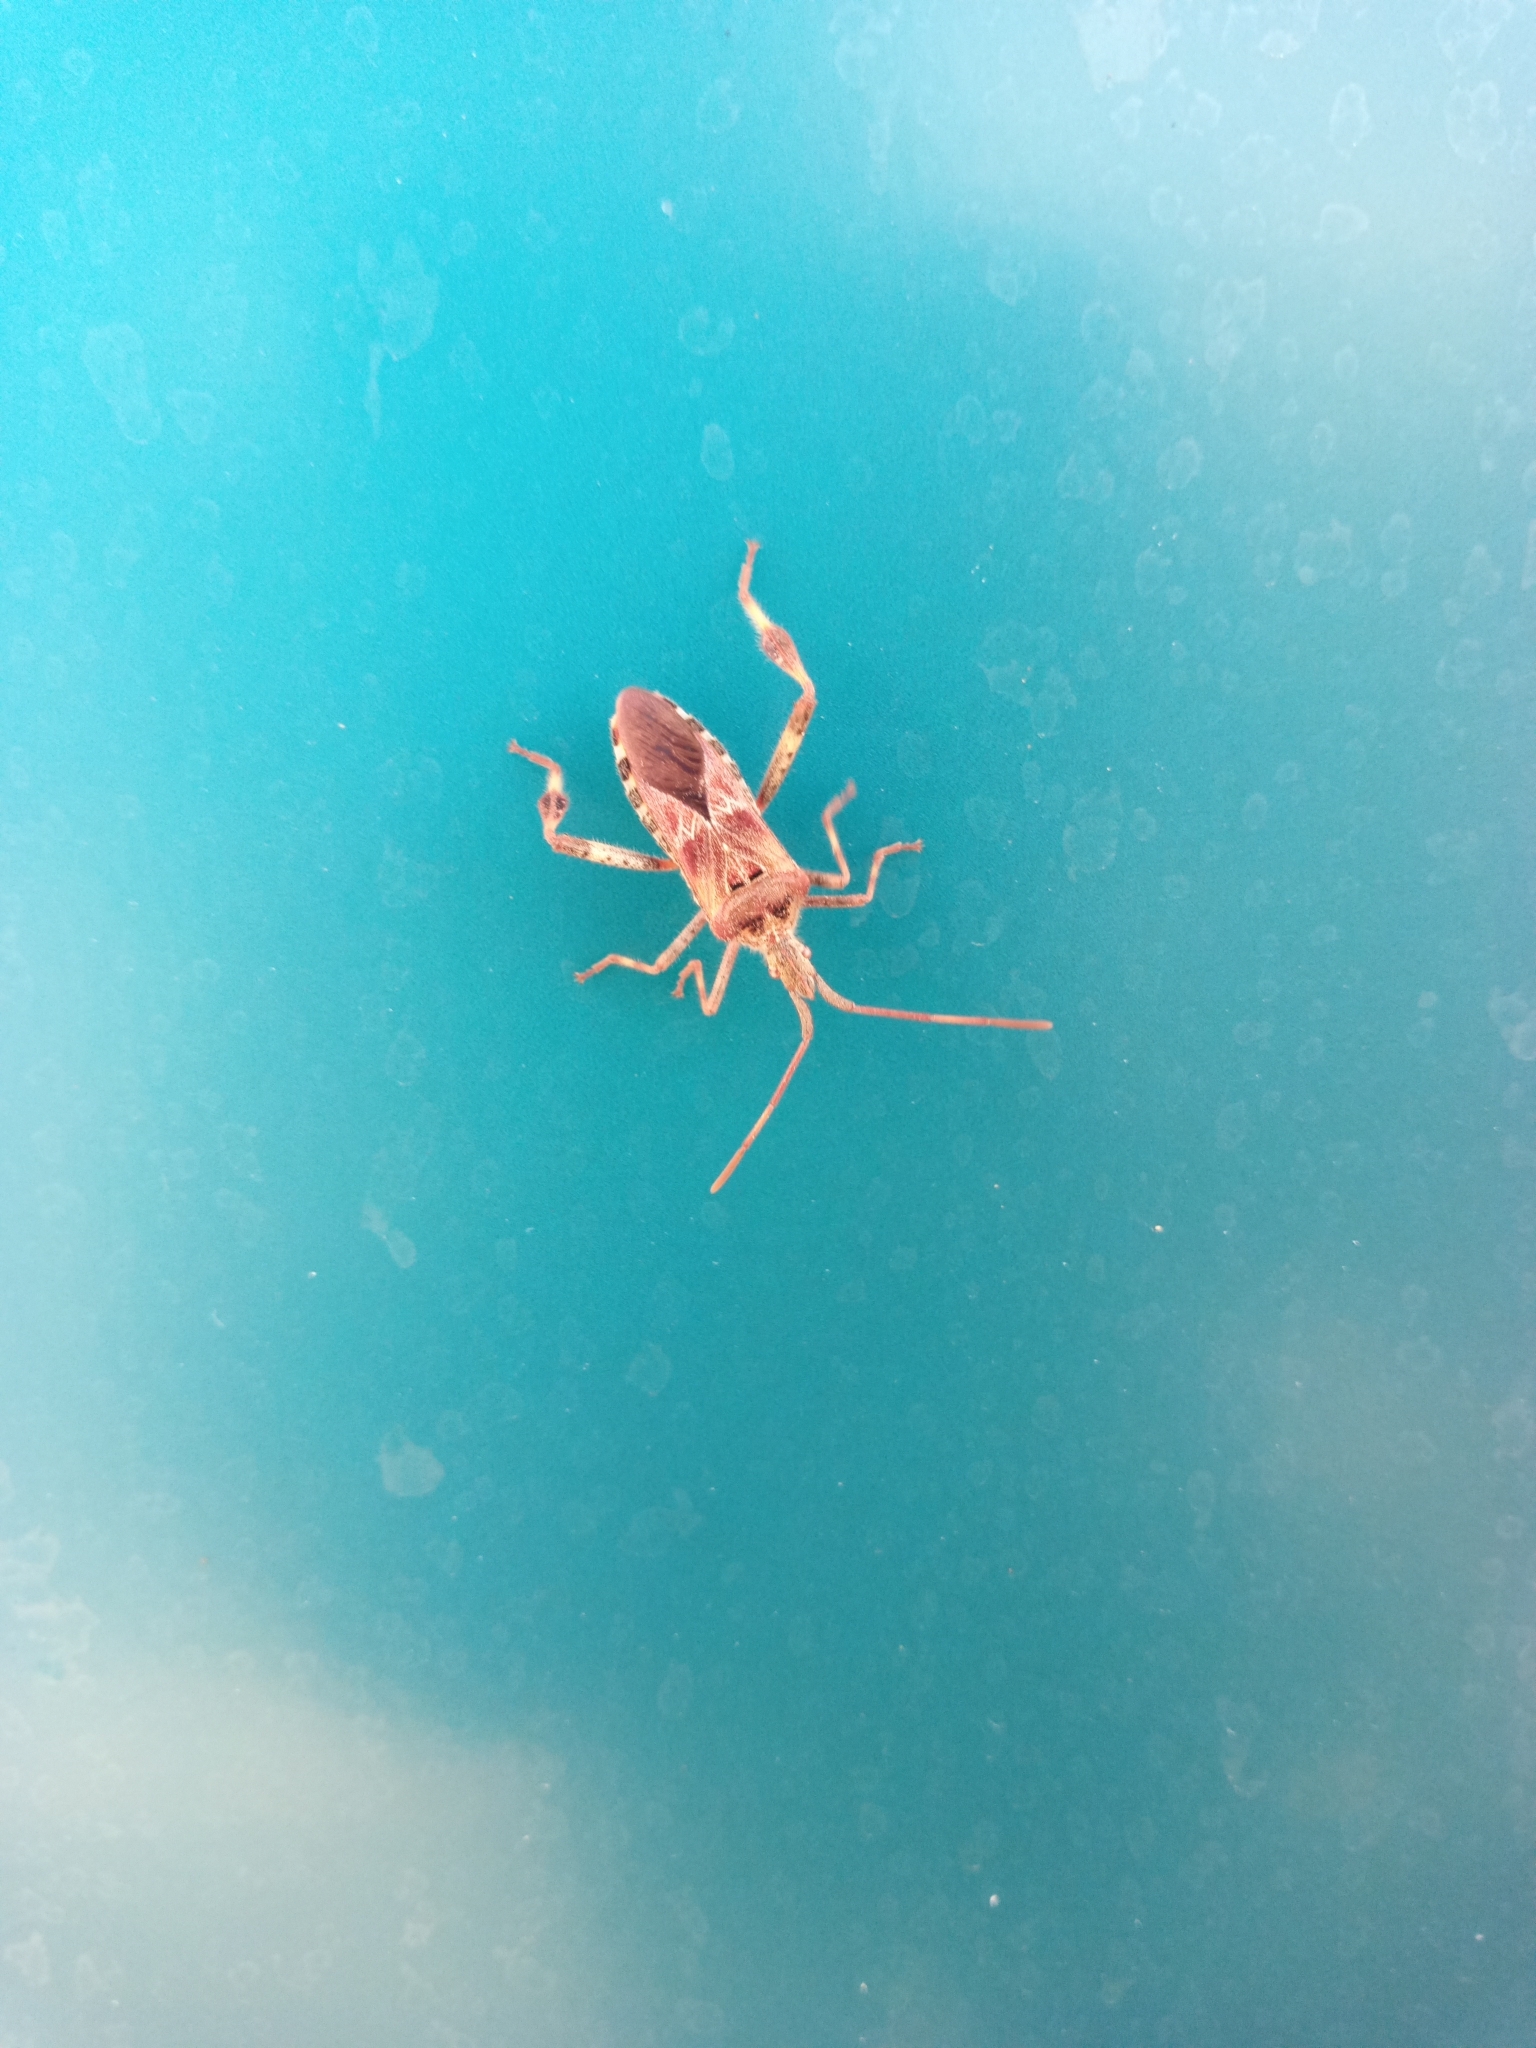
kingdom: Animalia
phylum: Arthropoda
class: Insecta
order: Hemiptera
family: Coreidae
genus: Leptoglossus
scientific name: Leptoglossus occidentalis
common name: Western conifer-seed bug
